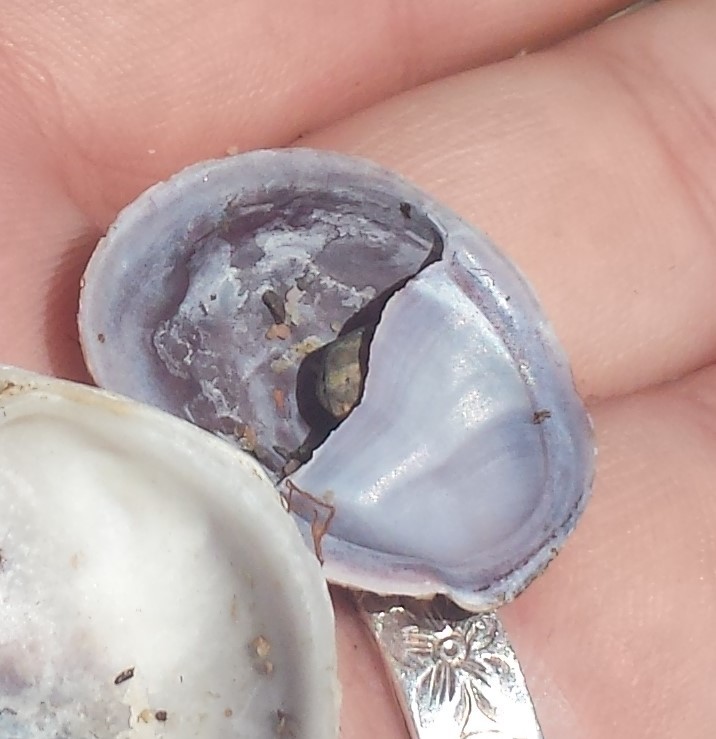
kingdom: Animalia
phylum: Mollusca
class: Gastropoda
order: Littorinimorpha
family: Calyptraeidae
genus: Crepidula
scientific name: Crepidula fornicata
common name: Slipper limpet
